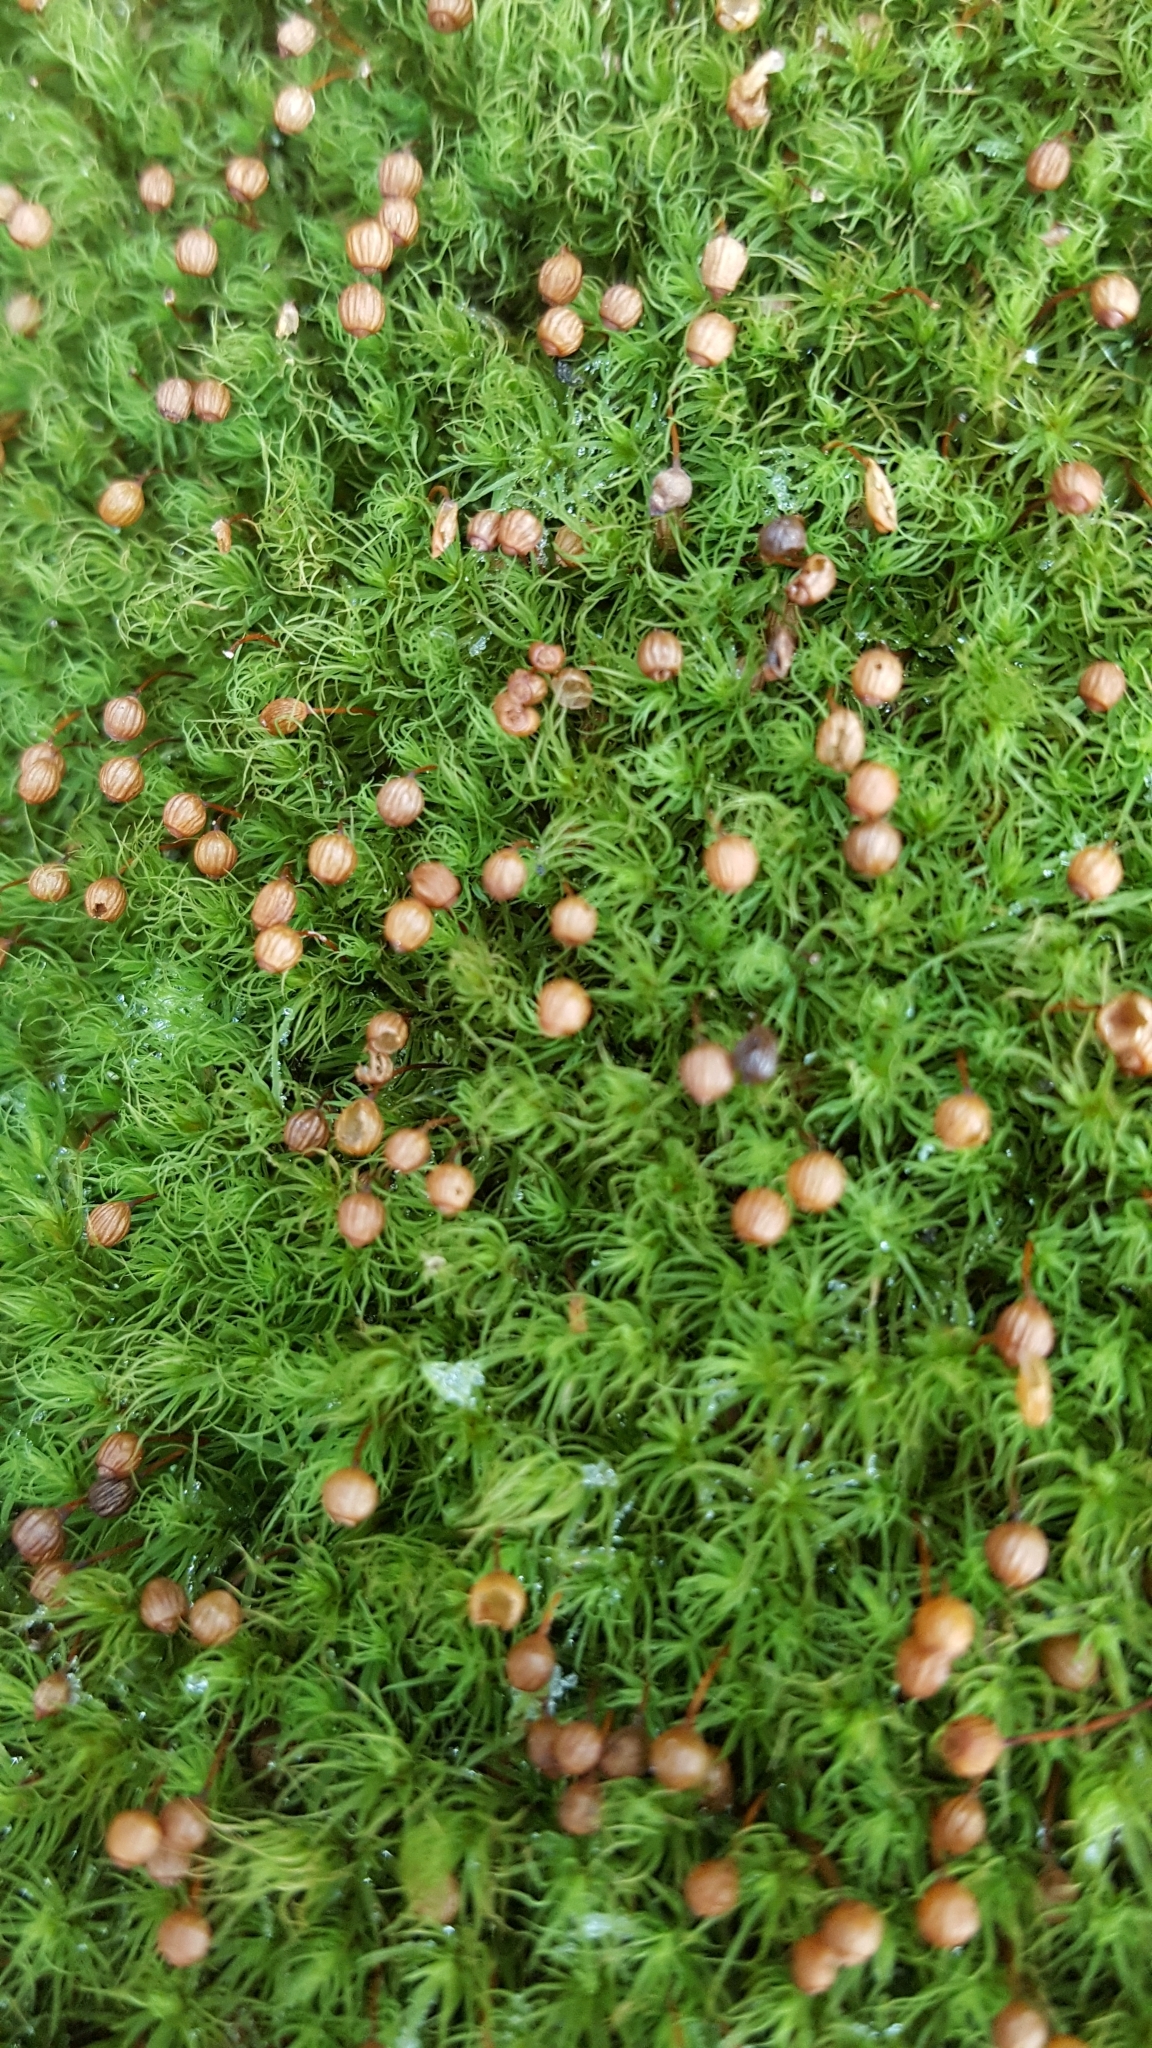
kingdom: Plantae
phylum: Bryophyta
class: Bryopsida
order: Bartramiales
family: Bartramiaceae
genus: Bartramia
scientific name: Bartramia ithyphylla
